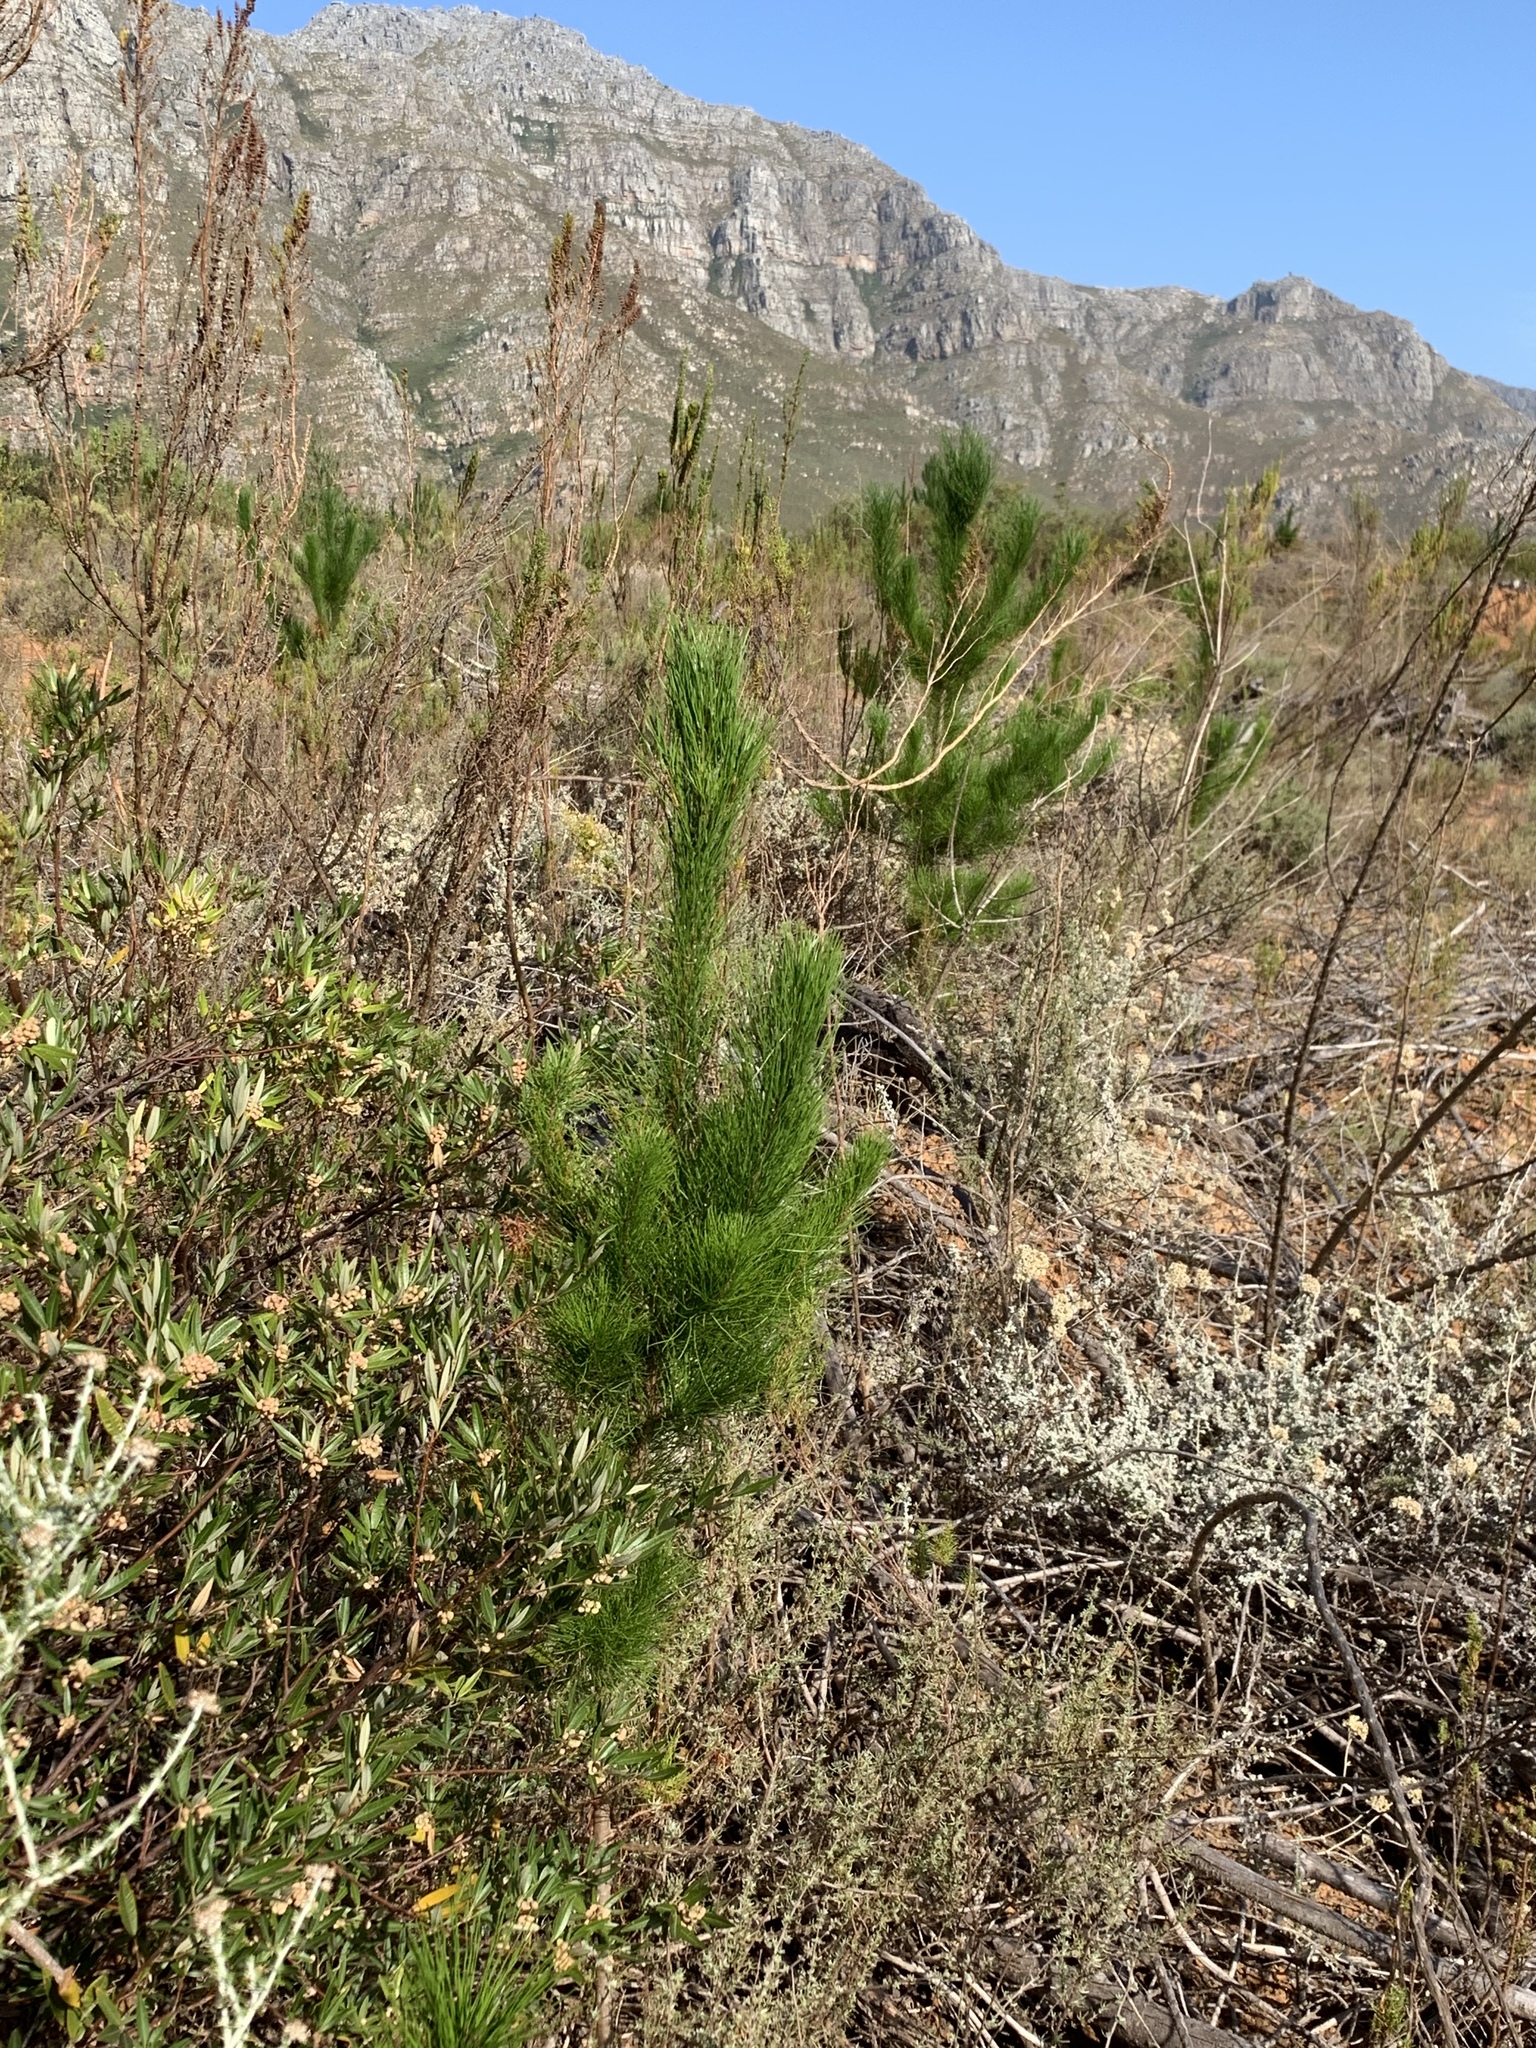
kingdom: Plantae
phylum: Tracheophyta
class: Pinopsida
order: Pinales
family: Pinaceae
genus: Pinus
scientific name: Pinus radiata
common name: Monterey pine
